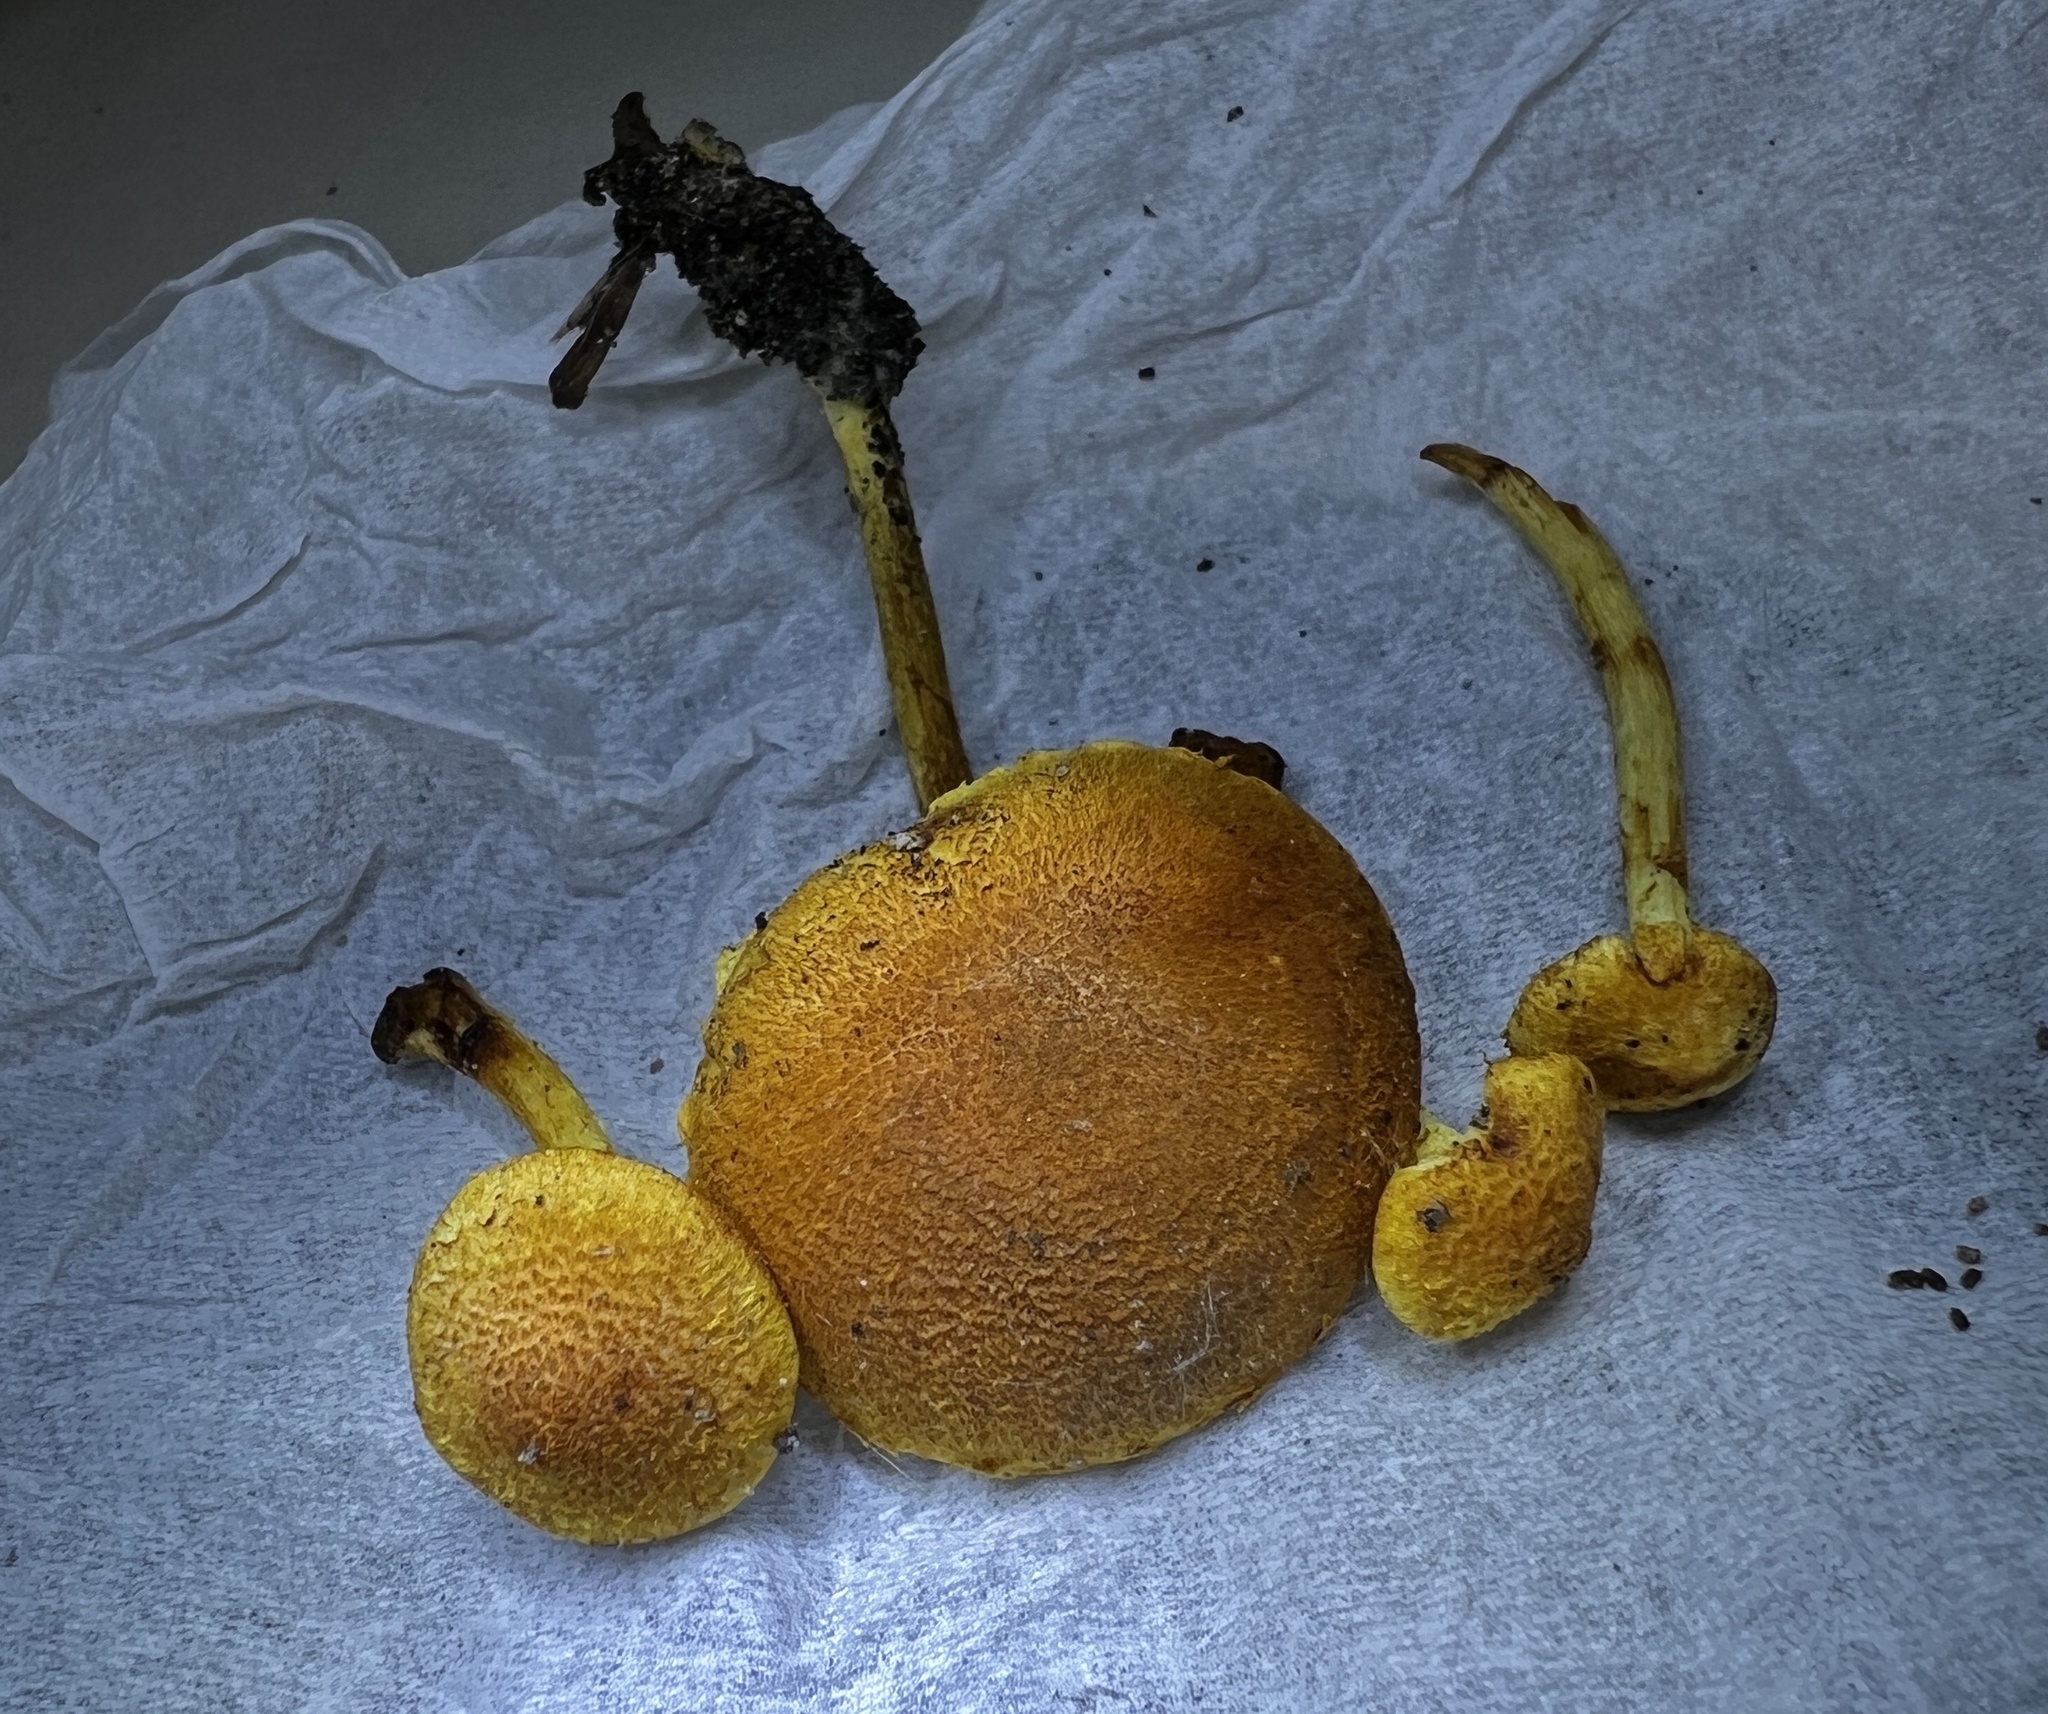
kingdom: Fungi
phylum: Basidiomycota
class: Agaricomycetes
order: Agaricales
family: Strophariaceae
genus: Pholiota
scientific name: Pholiota granulosa
